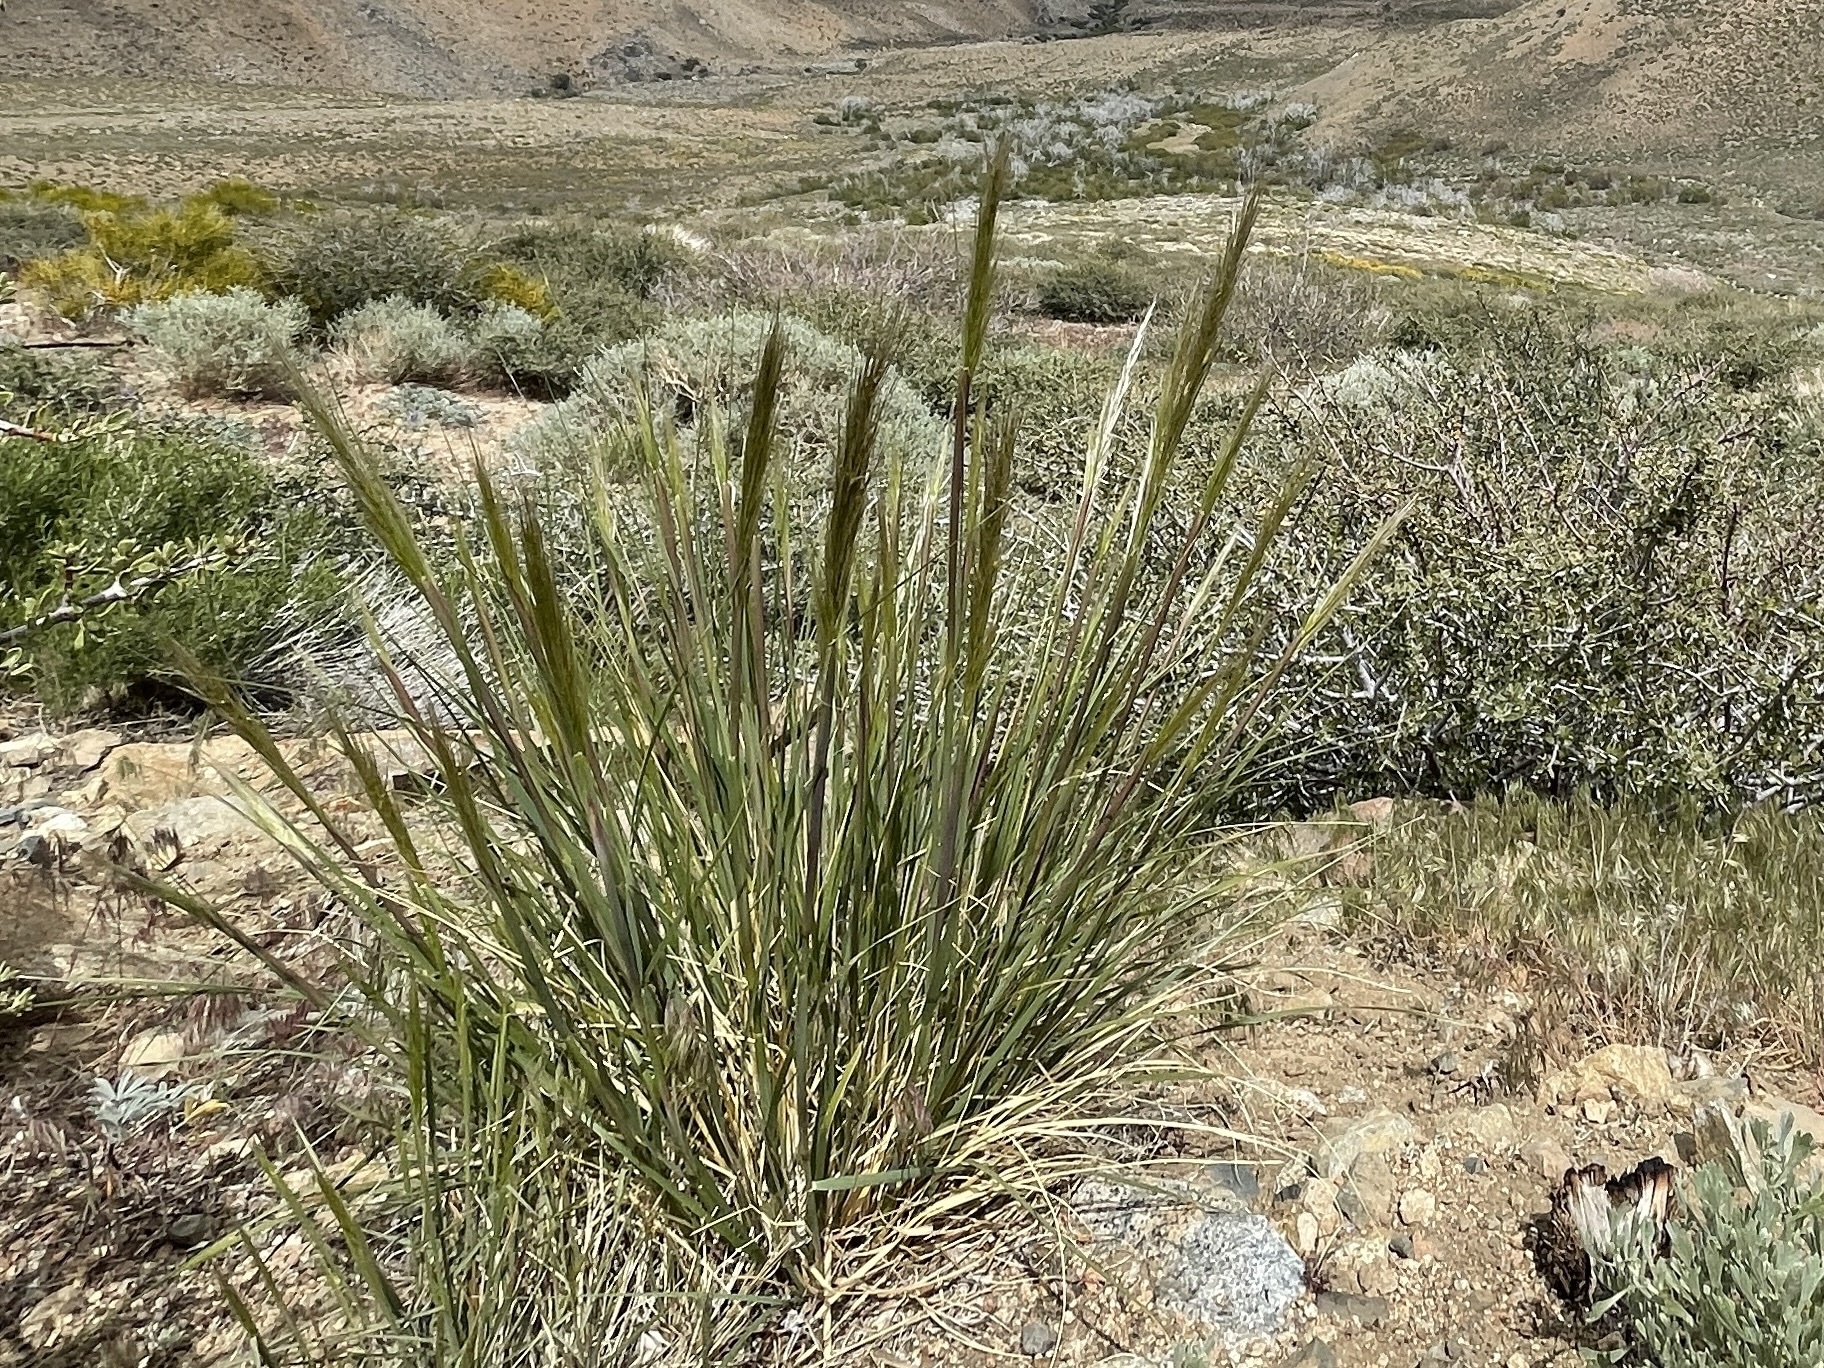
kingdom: Plantae
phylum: Tracheophyta
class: Liliopsida
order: Poales
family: Poaceae
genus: Leymus
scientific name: Leymus cinereus
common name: Basin wild rye
